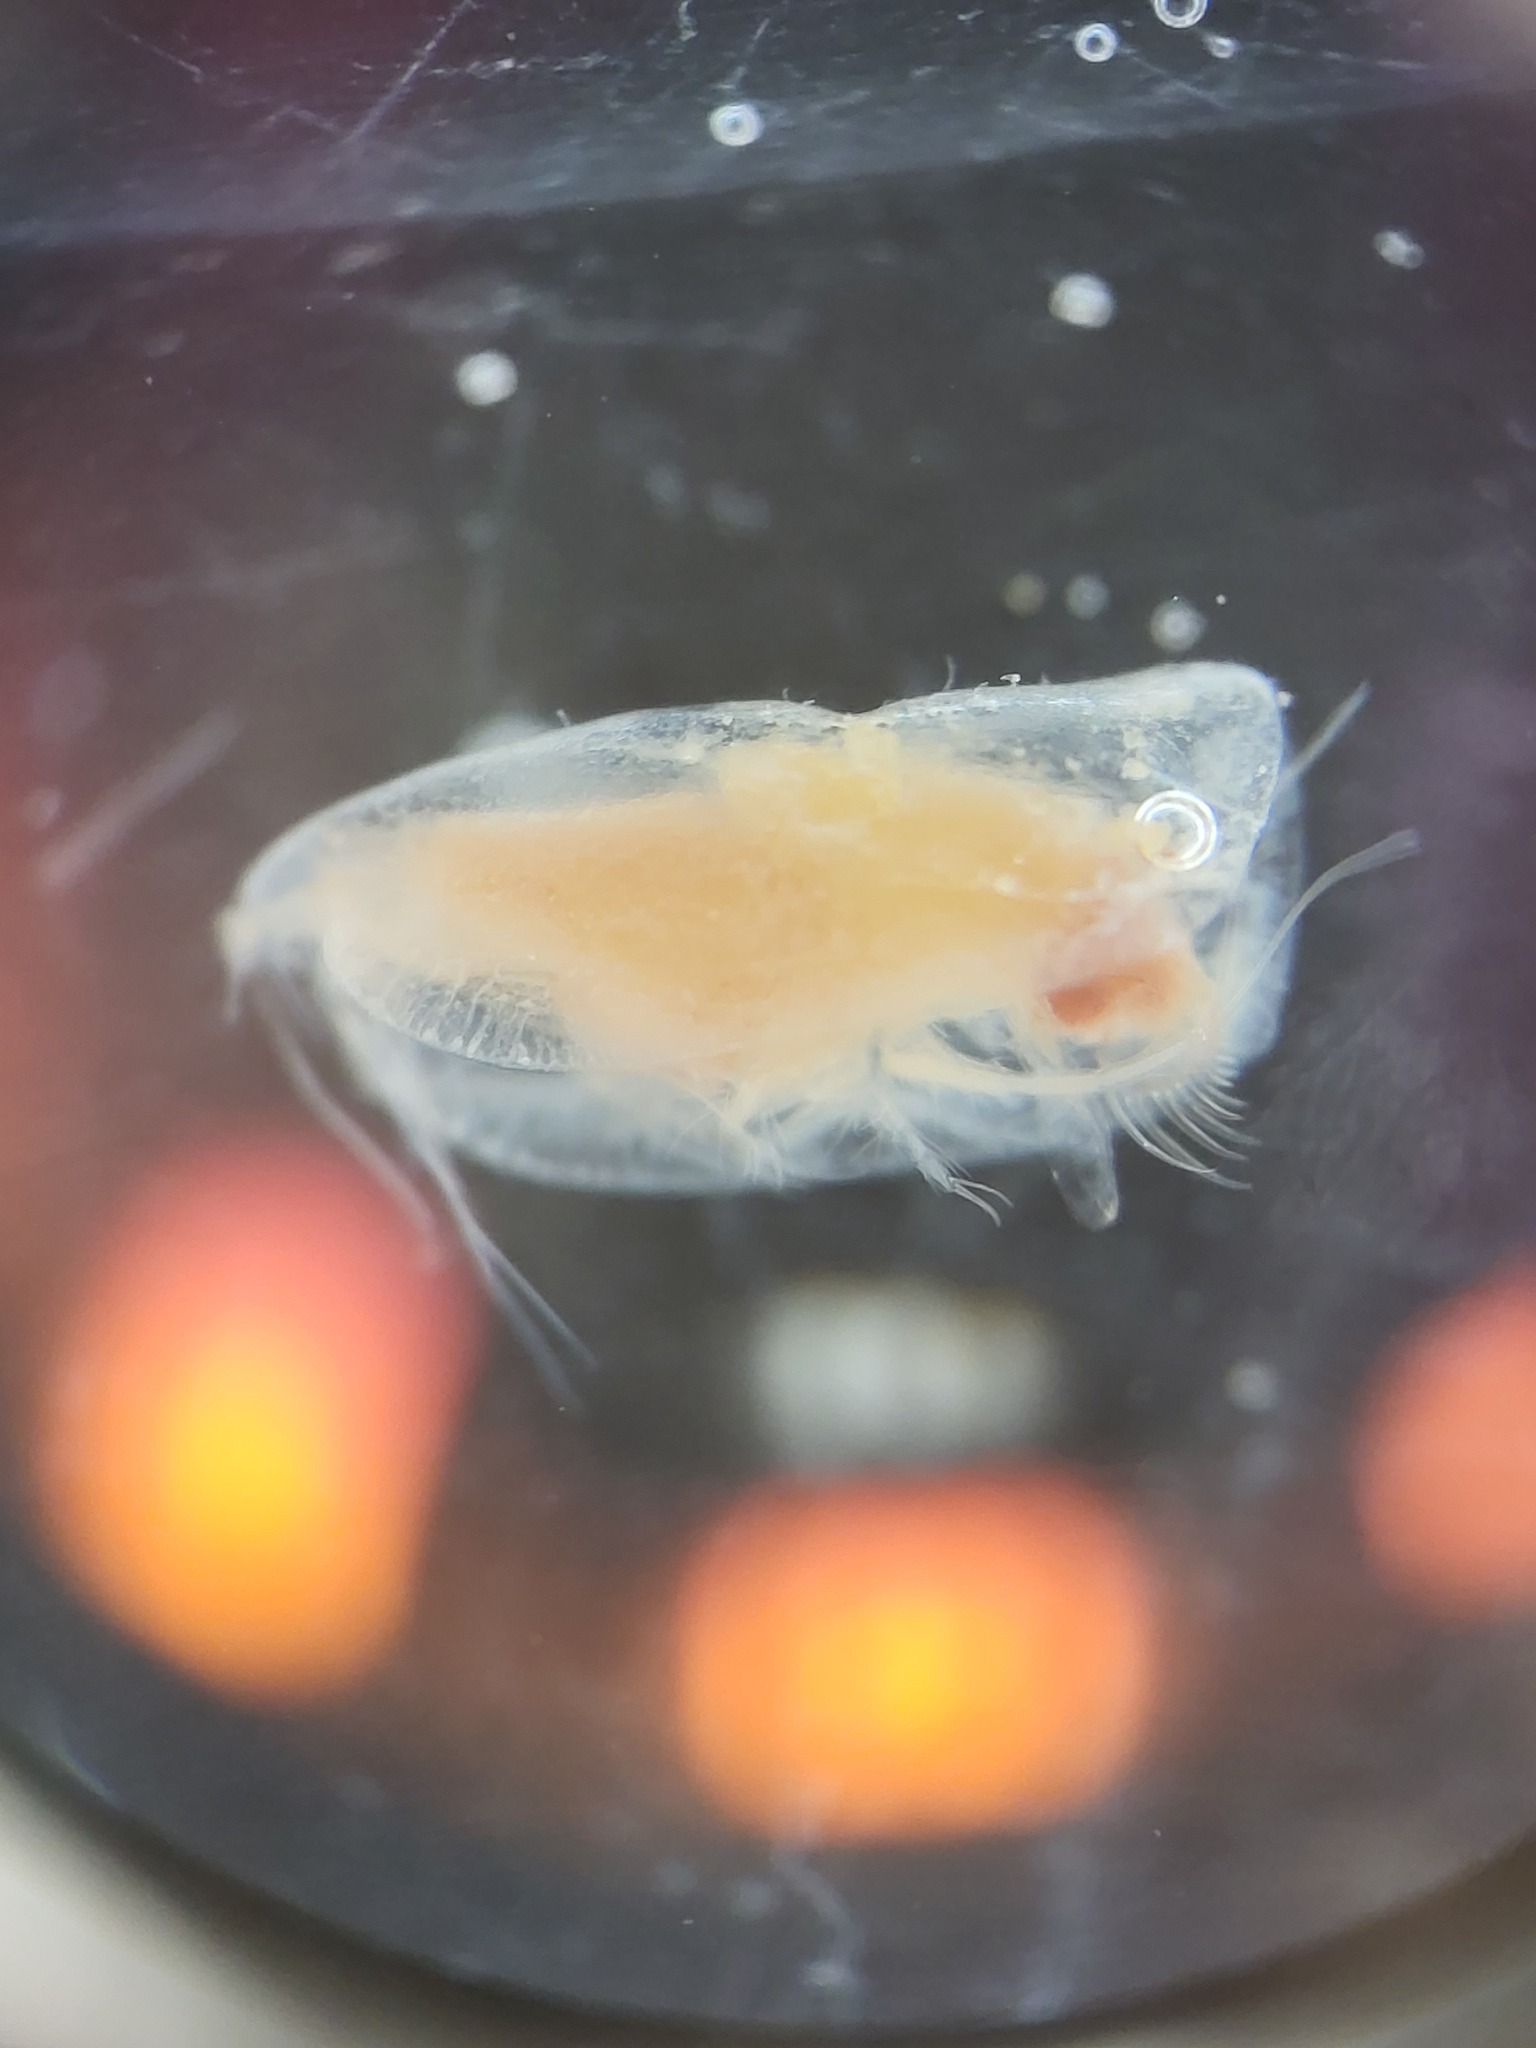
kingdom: Animalia
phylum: Arthropoda
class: Ostracoda
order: Halocyprida
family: Halocyprididae
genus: Boroecia
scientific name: Boroecia maxima
